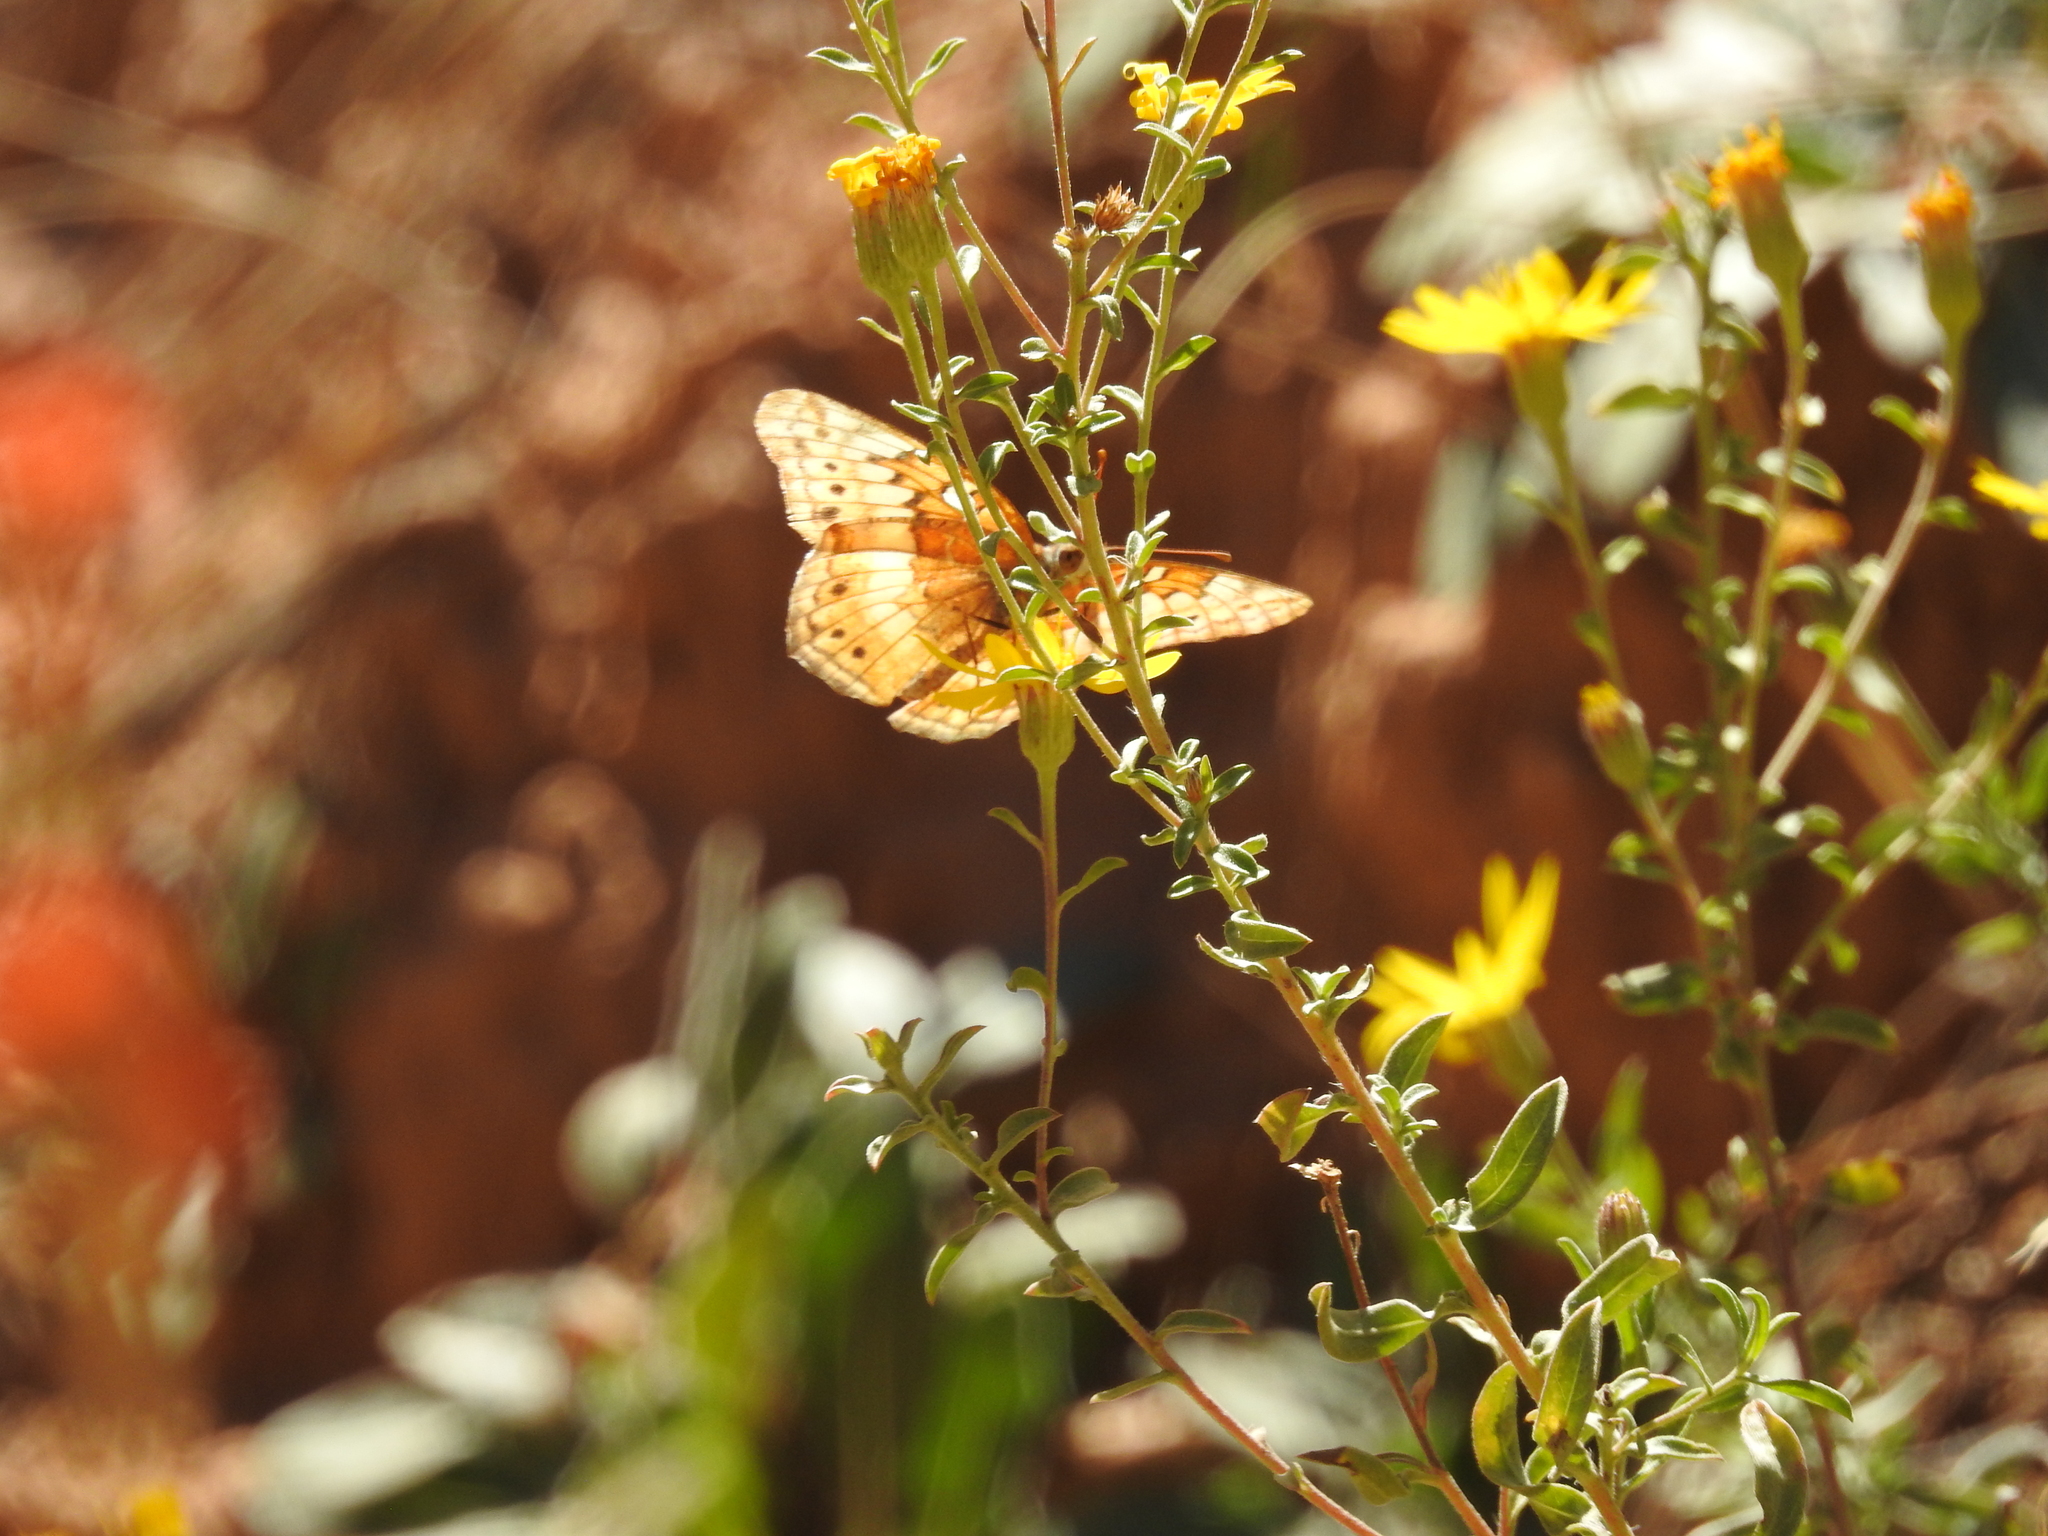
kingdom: Animalia
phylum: Arthropoda
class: Insecta
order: Lepidoptera
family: Nymphalidae
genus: Euptoieta
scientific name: Euptoieta claudia
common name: Variegated fritillary
